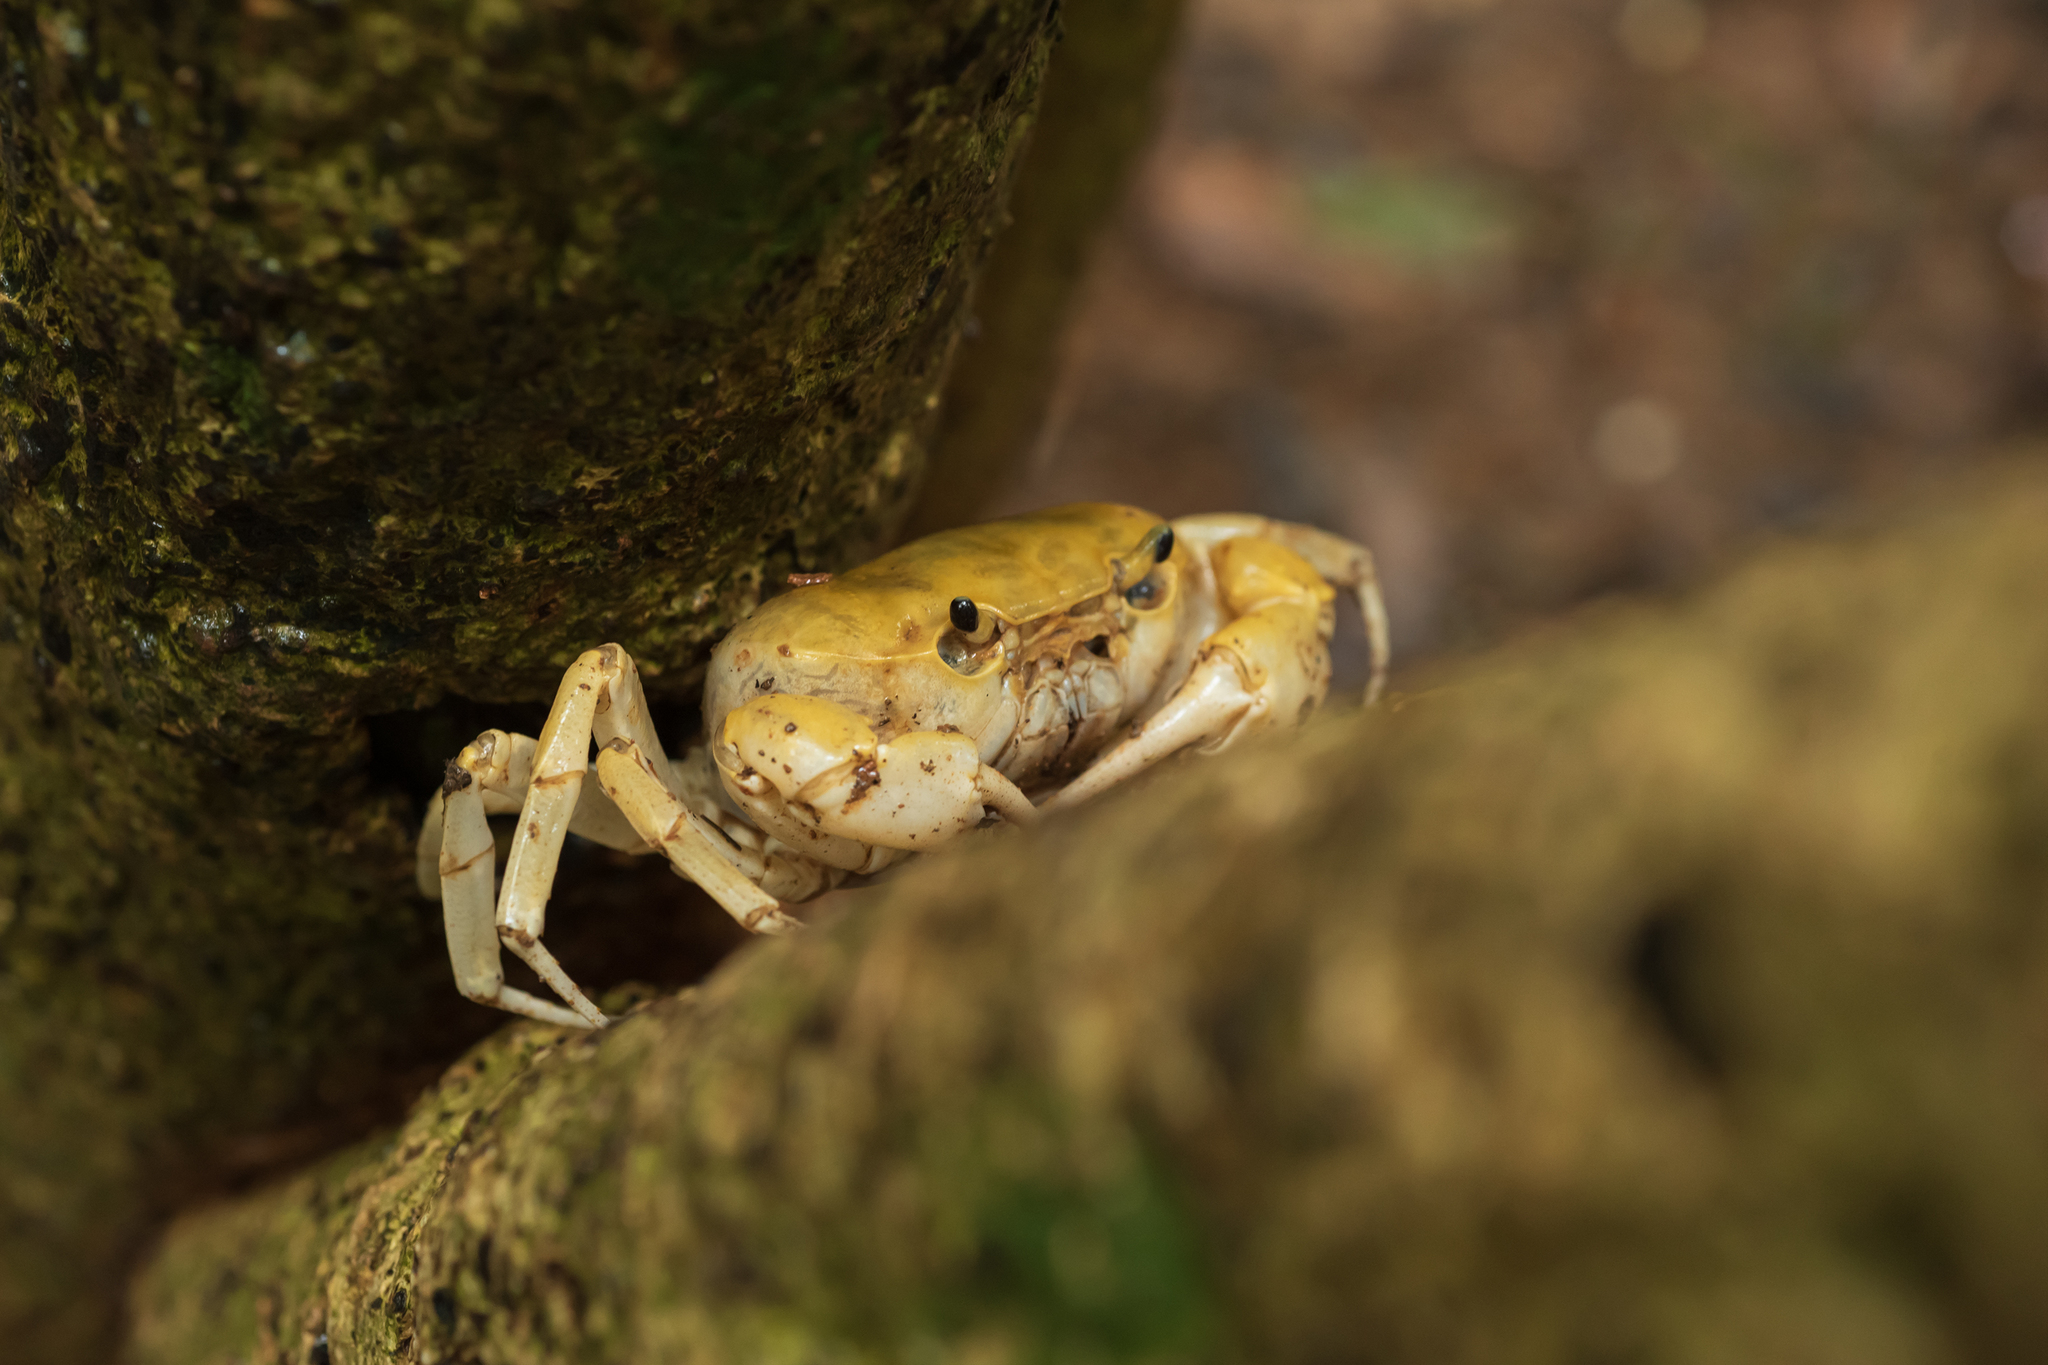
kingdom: Animalia
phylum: Arthropoda
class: Malacostraca
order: Decapoda
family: Potamidae
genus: Geothelphusa
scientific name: Geothelphusa makatao
